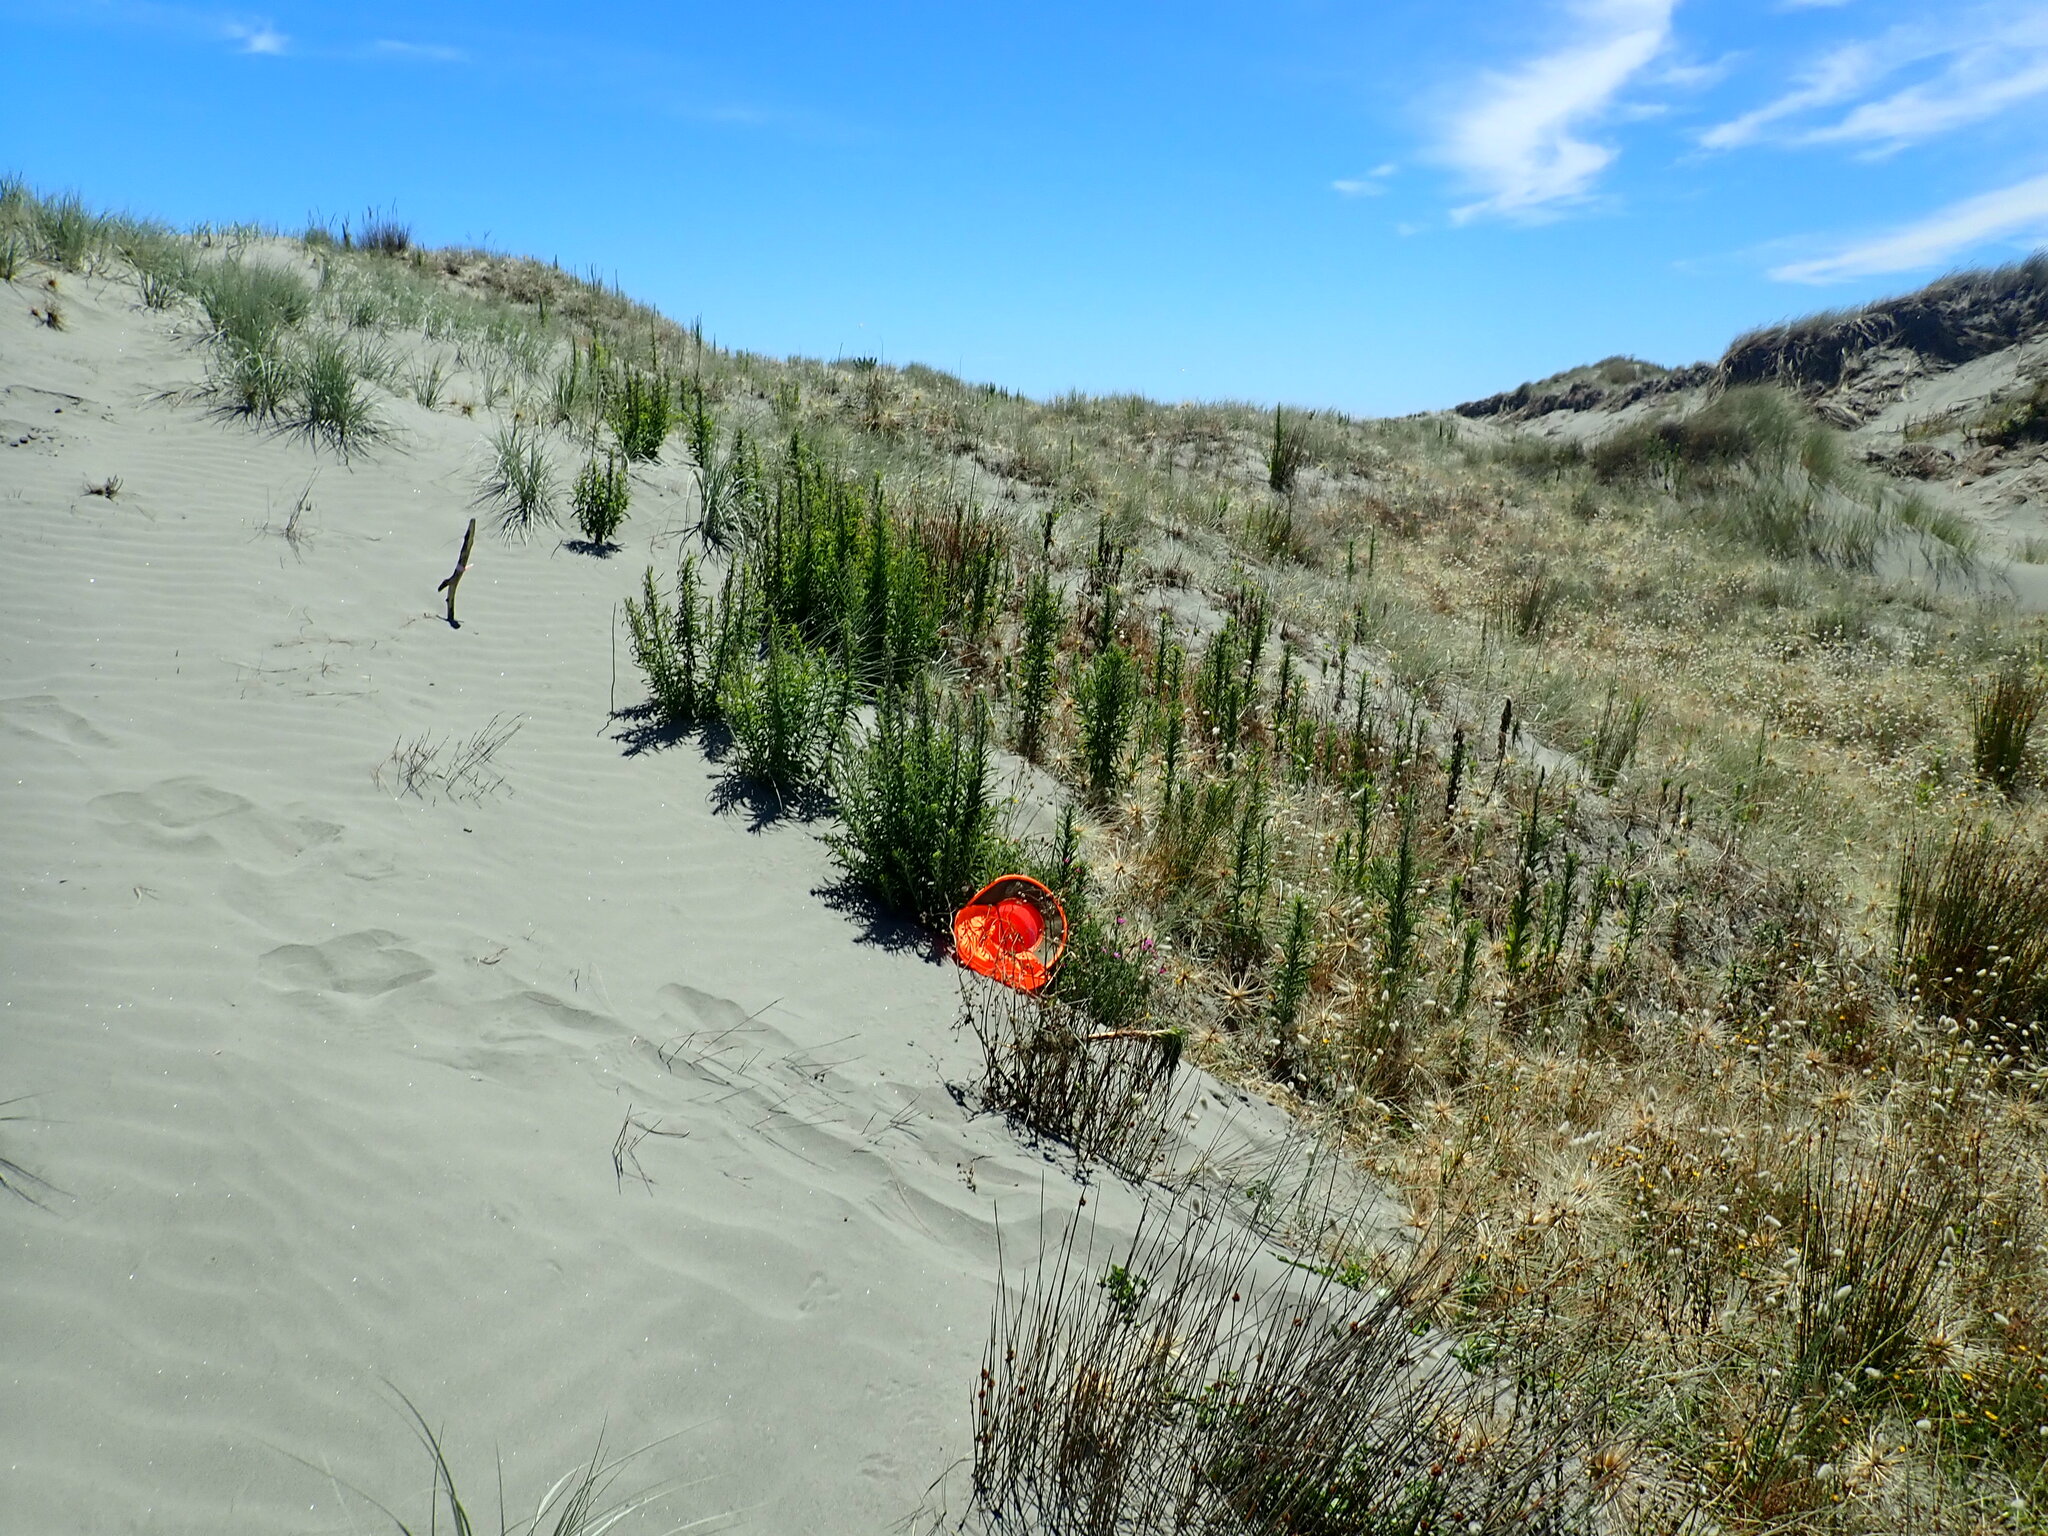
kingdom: Plantae
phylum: Tracheophyta
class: Magnoliopsida
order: Asterales
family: Asteraceae
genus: Senecio
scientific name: Senecio elegans
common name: Purple groundsel
